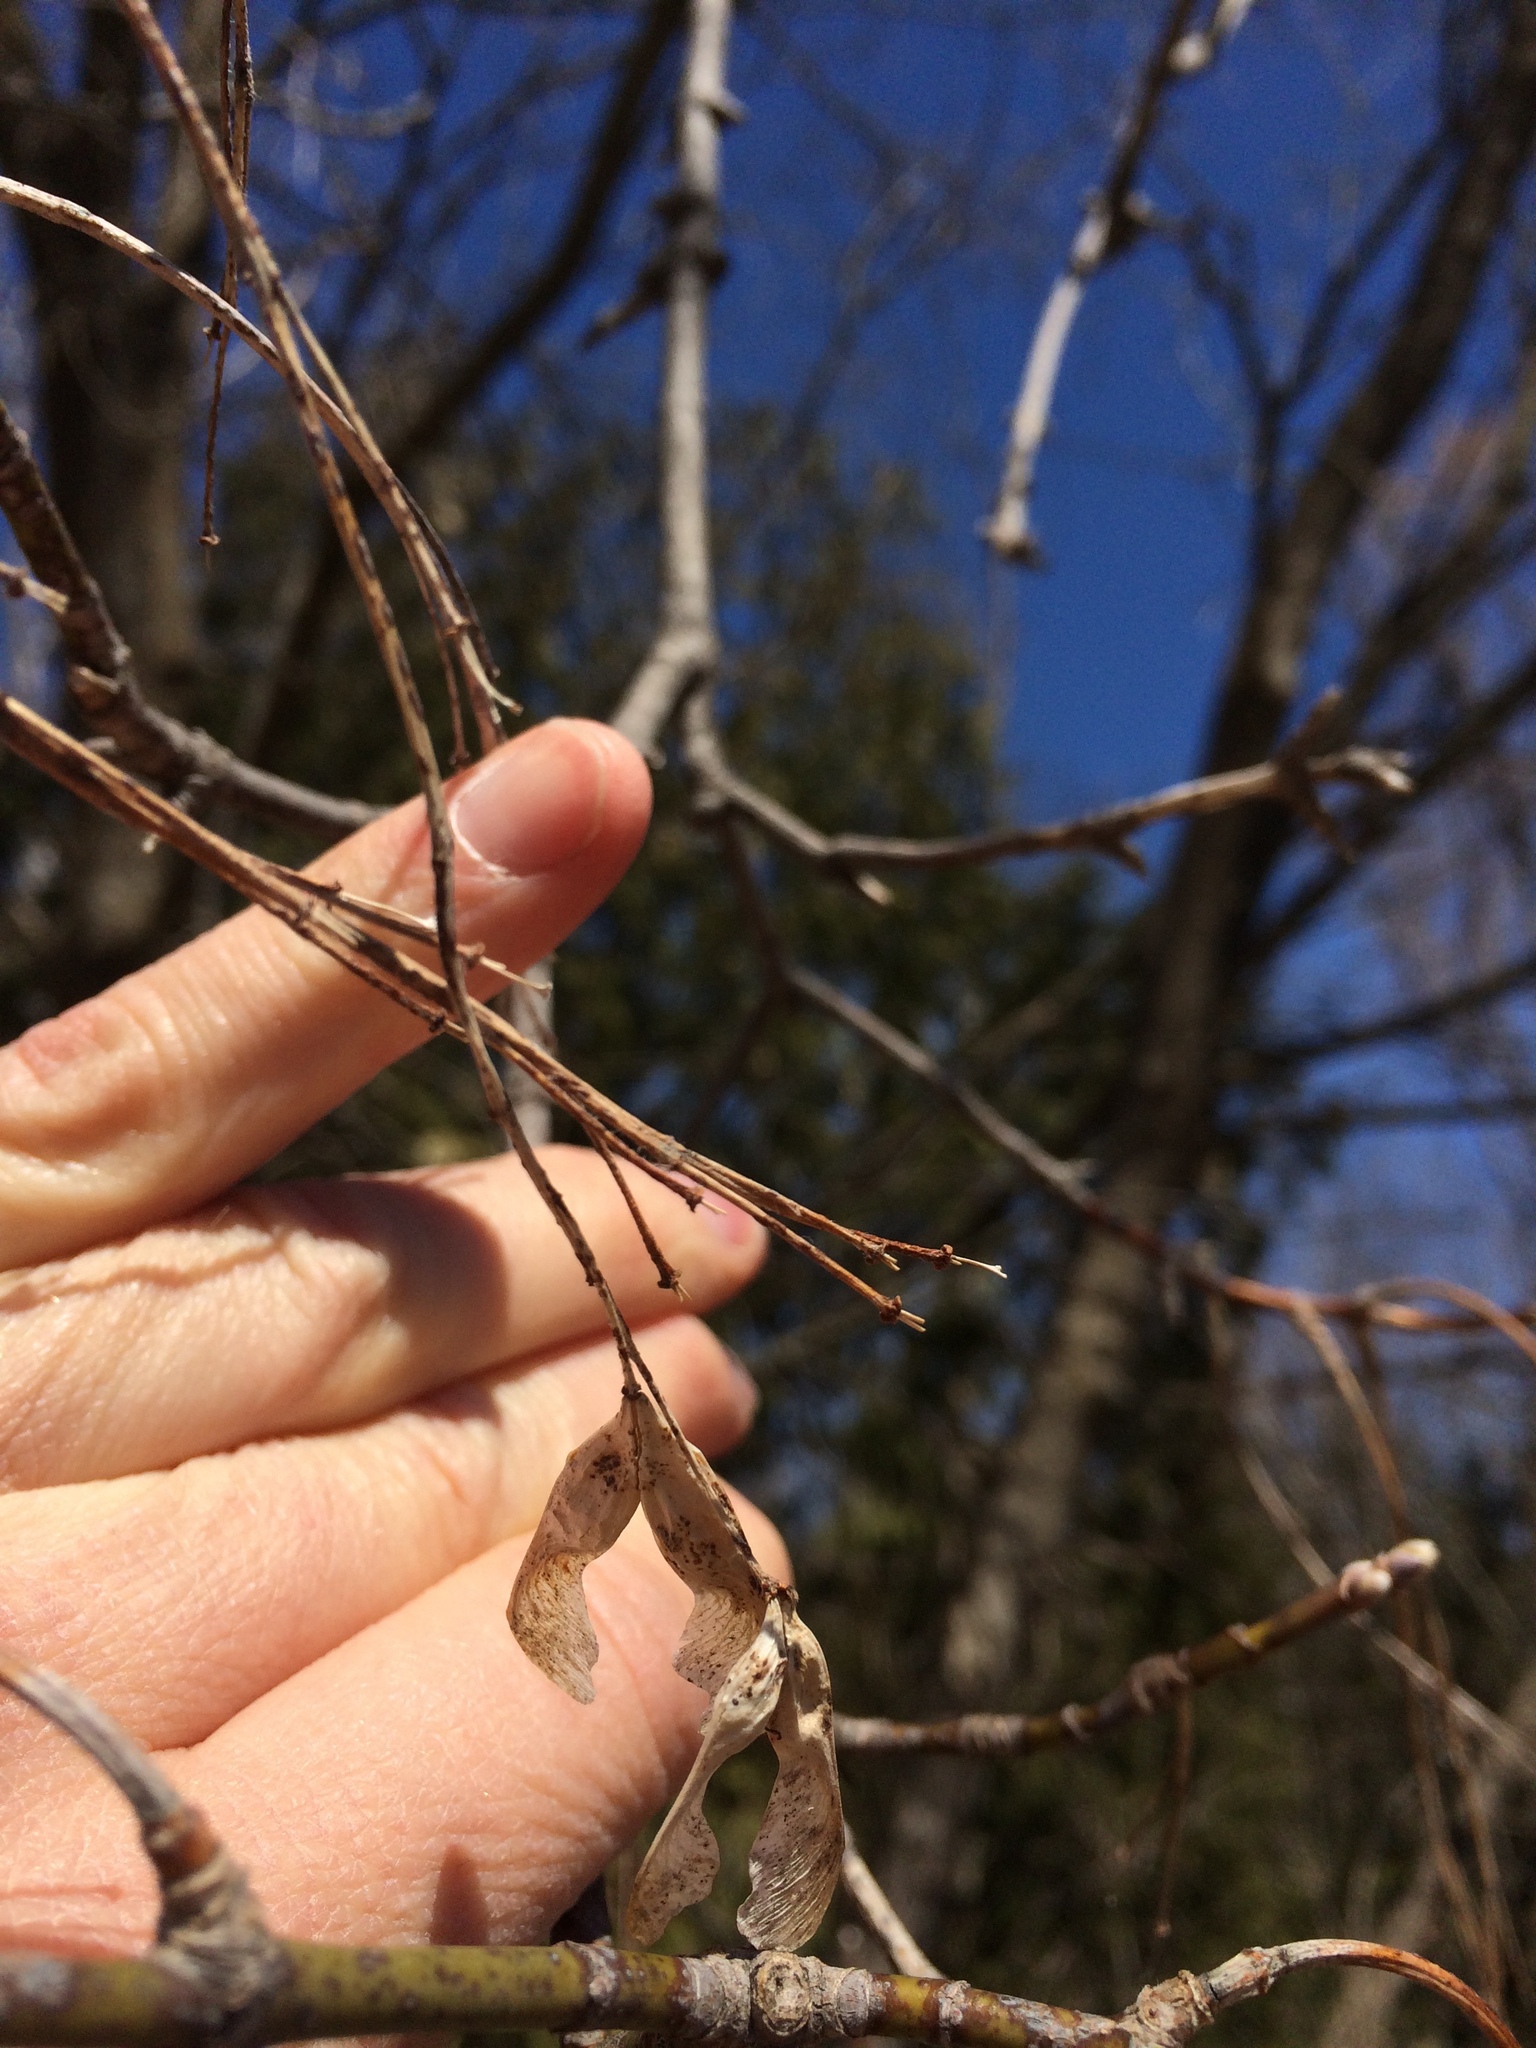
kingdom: Plantae
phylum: Tracheophyta
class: Magnoliopsida
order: Sapindales
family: Sapindaceae
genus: Acer
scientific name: Acer negundo
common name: Ashleaf maple
